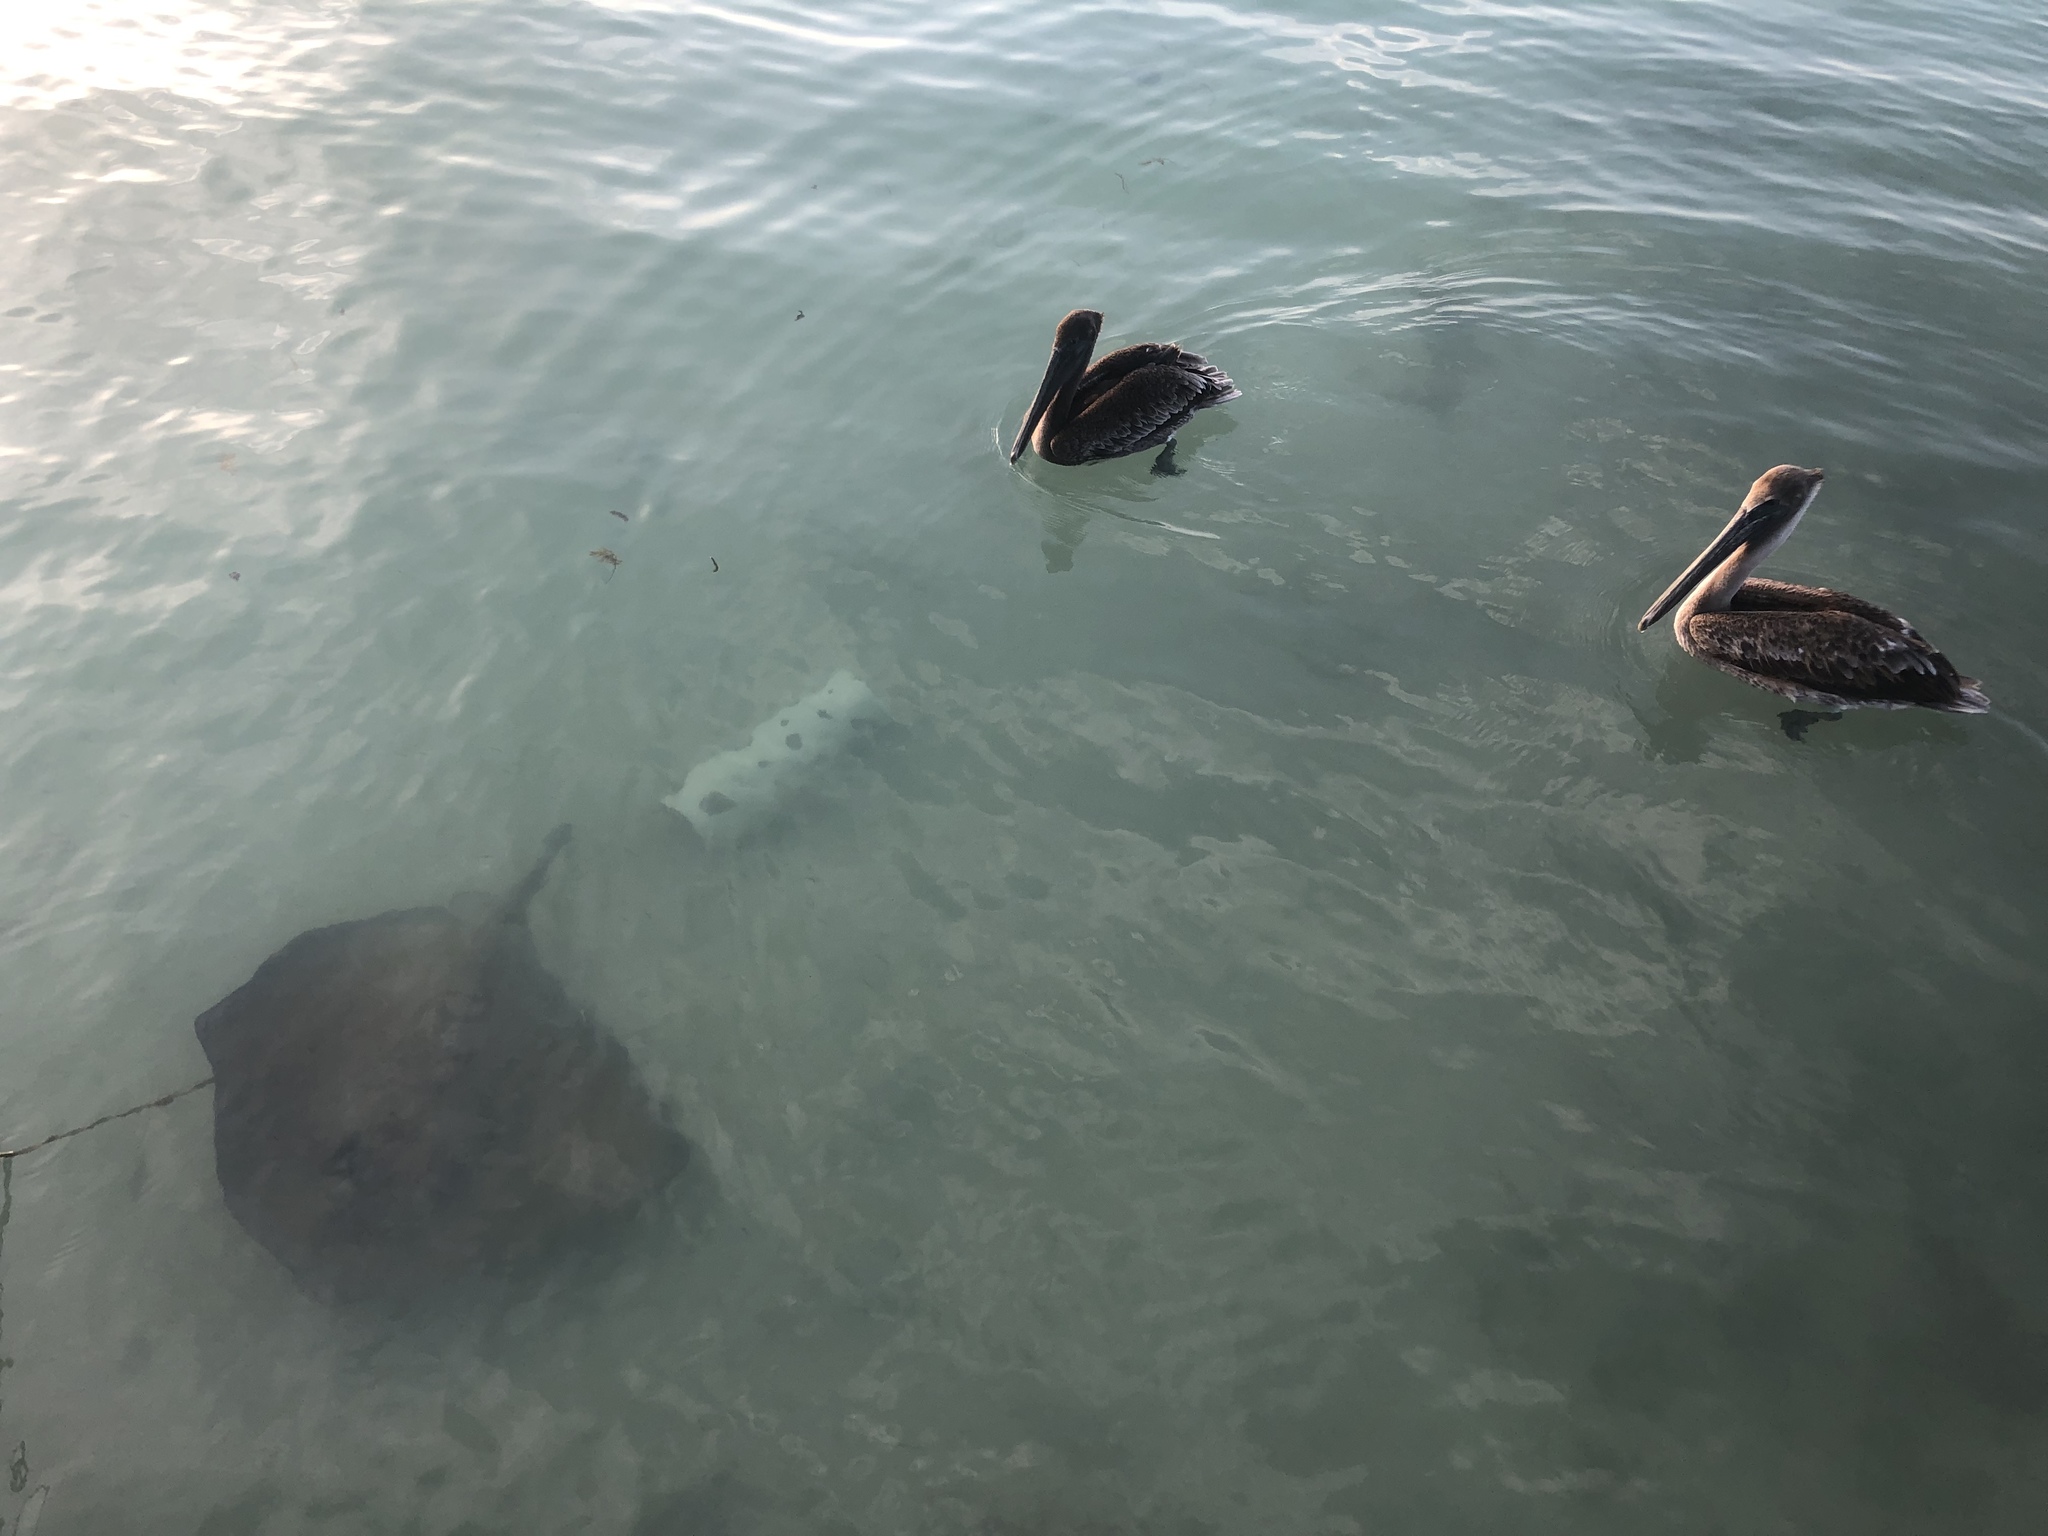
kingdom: Animalia
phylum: Chordata
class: Aves
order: Pelecaniformes
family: Pelecanidae
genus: Pelecanus
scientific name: Pelecanus occidentalis
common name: Brown pelican
